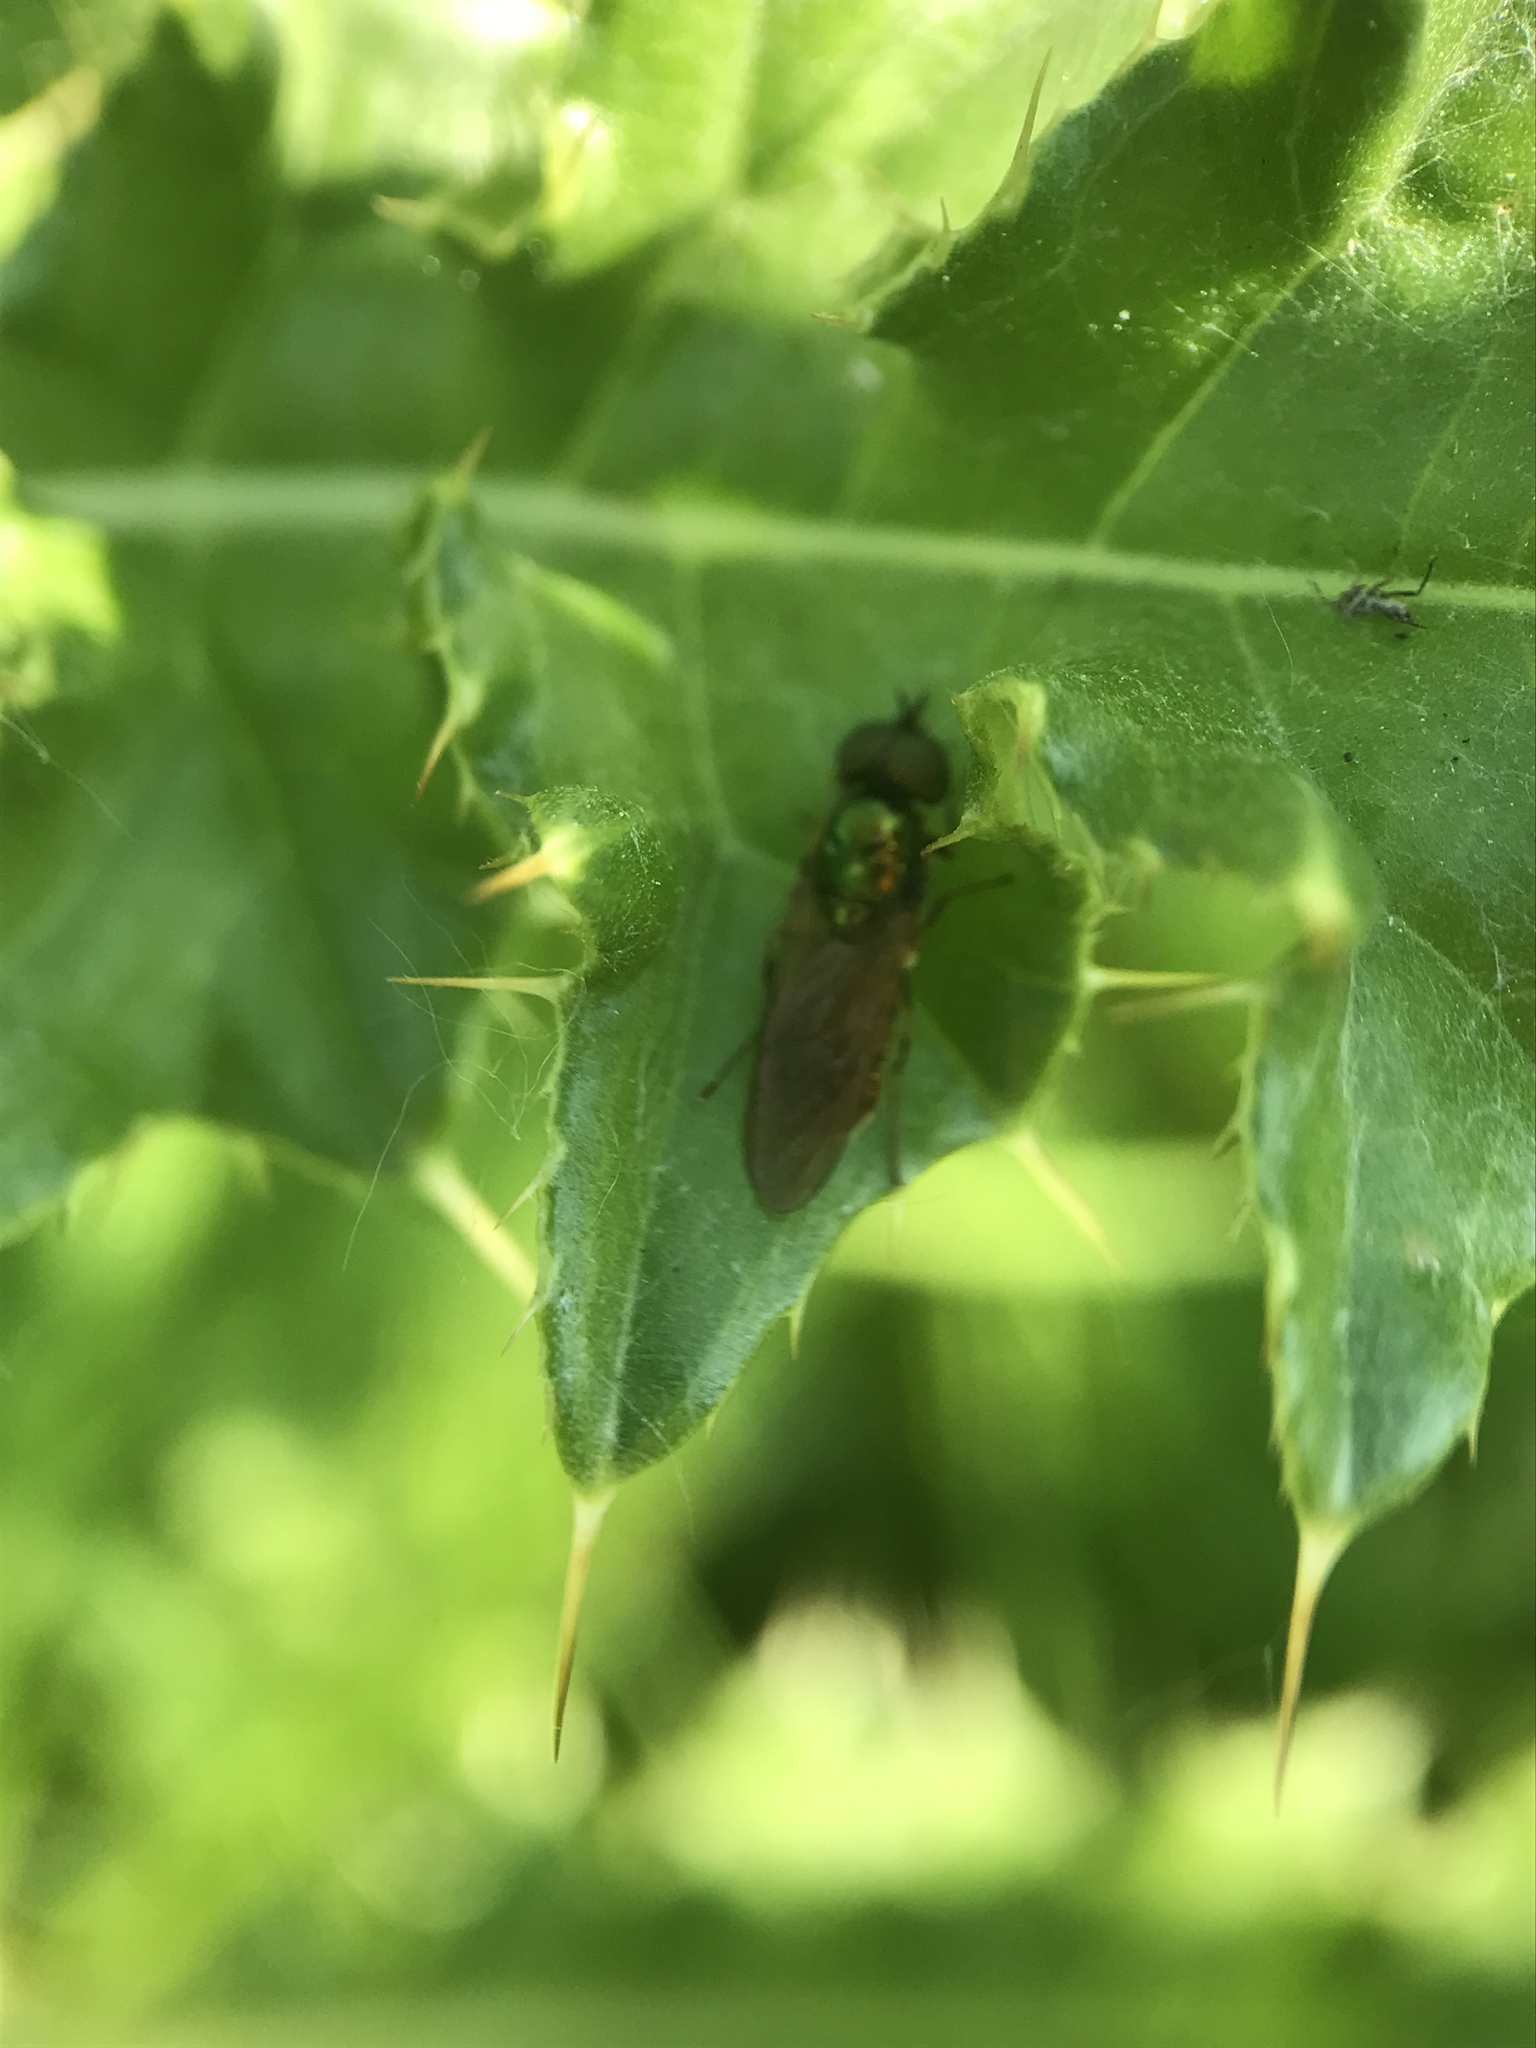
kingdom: Animalia
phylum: Arthropoda
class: Insecta
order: Diptera
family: Stratiomyidae
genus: Chloromyia
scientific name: Chloromyia formosa
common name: Soldier fly
